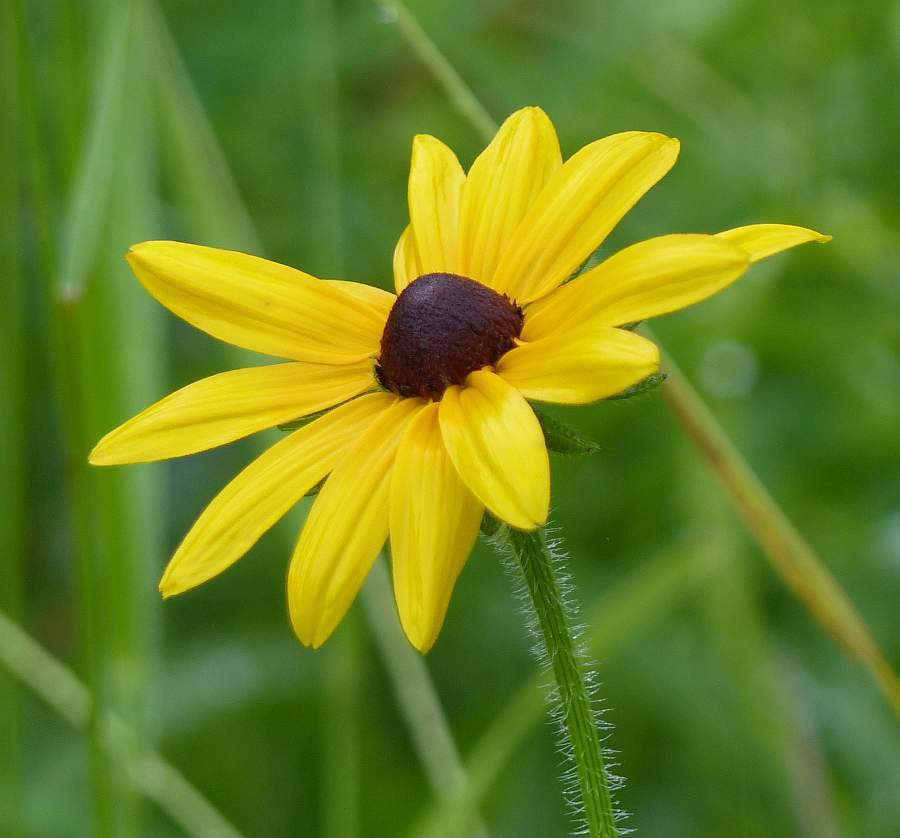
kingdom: Plantae
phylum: Tracheophyta
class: Magnoliopsida
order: Asterales
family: Asteraceae
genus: Rudbeckia
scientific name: Rudbeckia hirta
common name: Black-eyed-susan
